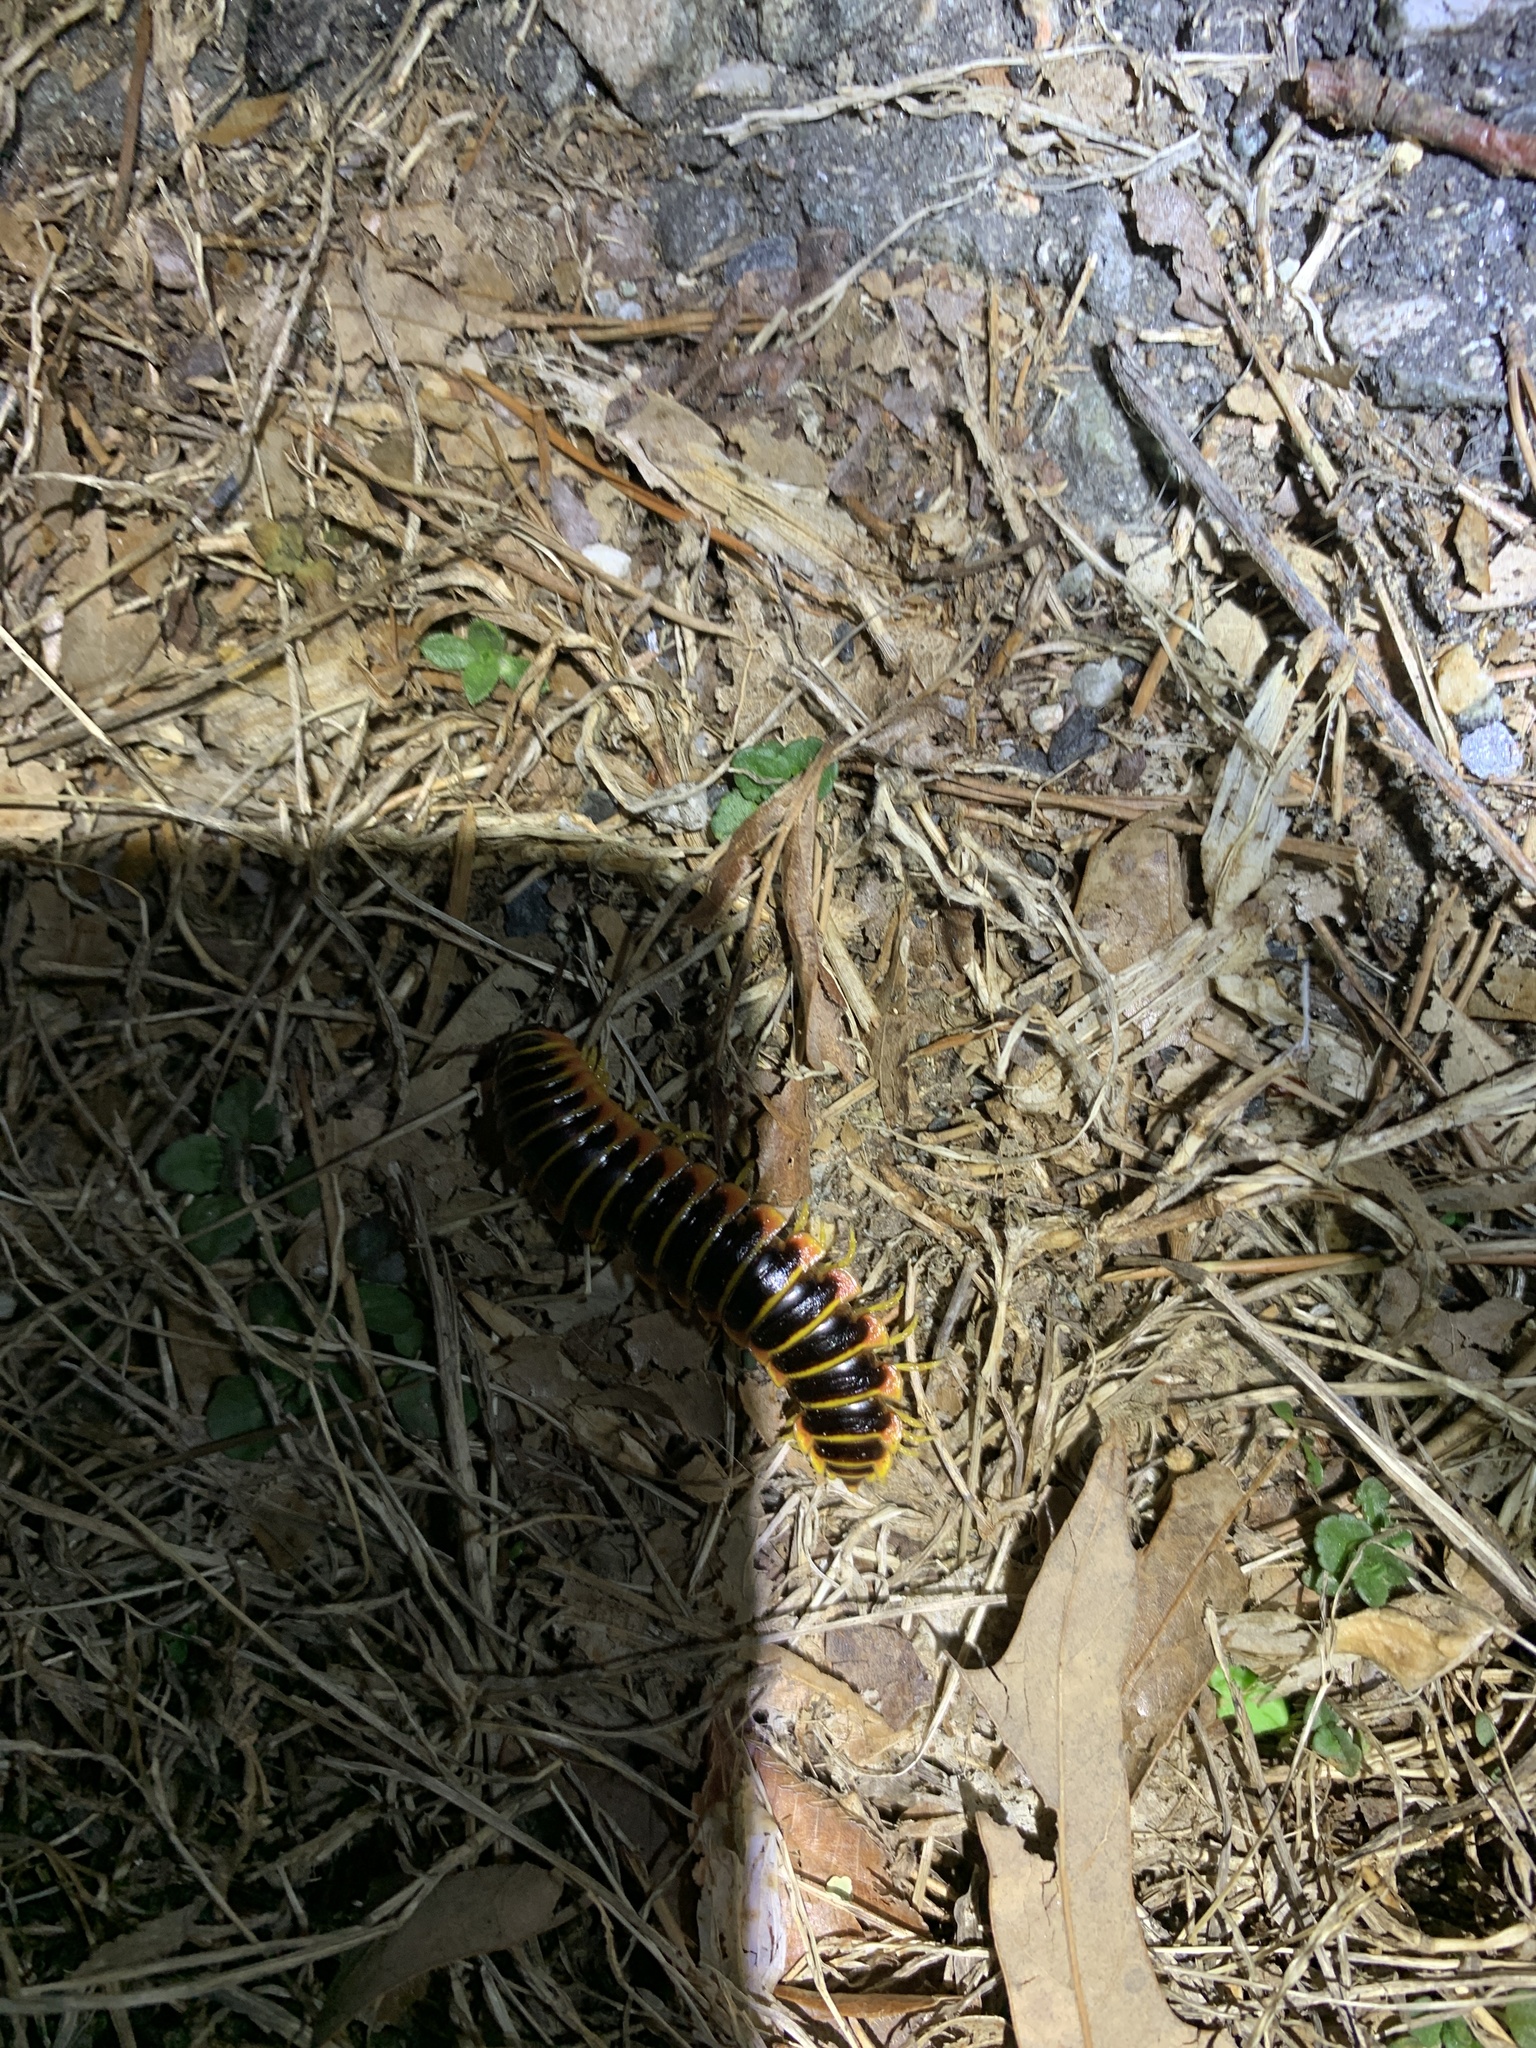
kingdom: Animalia
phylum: Arthropoda
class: Diplopoda
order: Polydesmida
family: Xystodesmidae
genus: Apheloria
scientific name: Apheloria virginiensis
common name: Black-and-gold flat millipede
